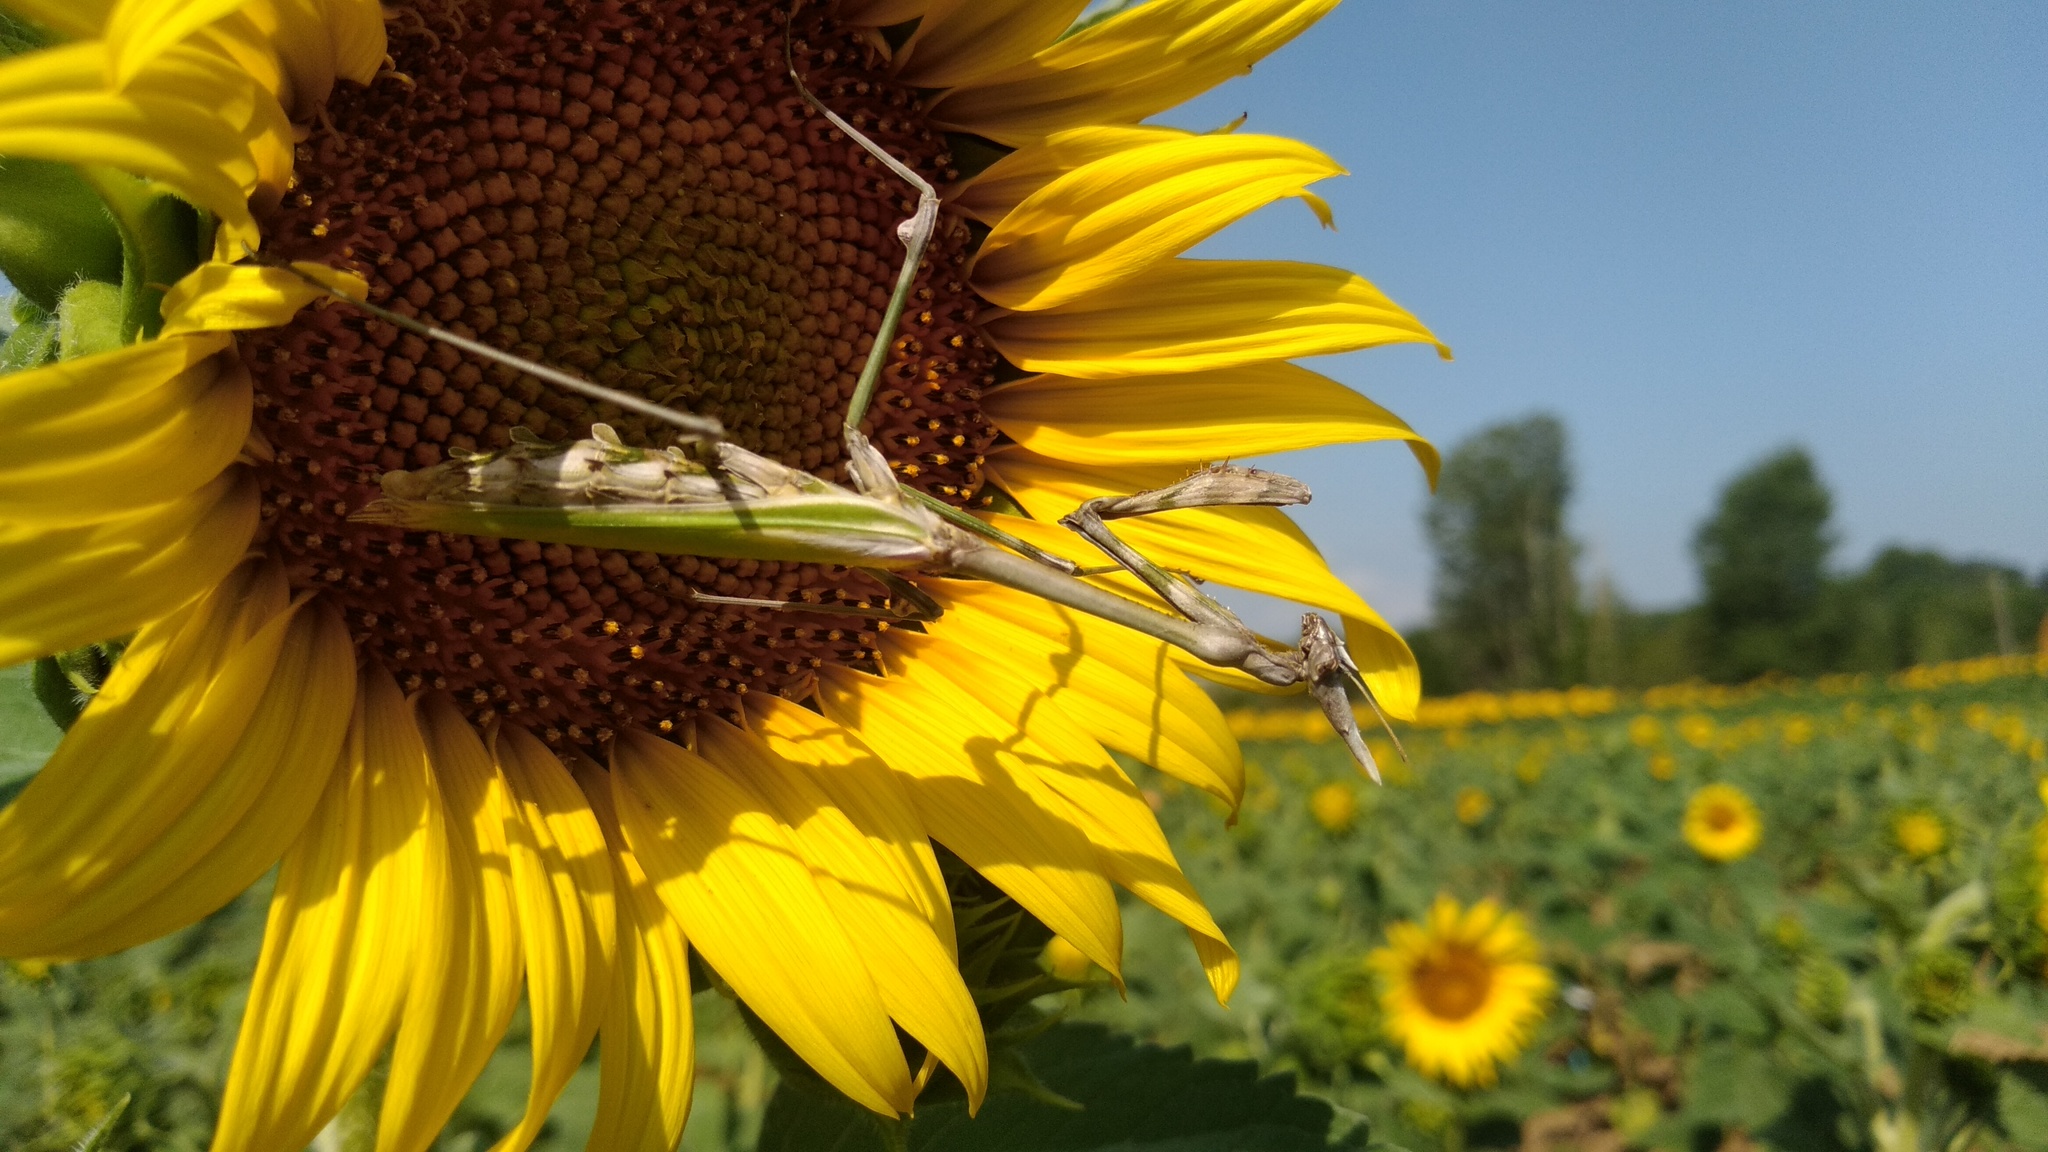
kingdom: Animalia
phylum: Arthropoda
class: Insecta
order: Mantodea
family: Empusidae
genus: Empusa
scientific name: Empusa pennata
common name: Conehead mantis
